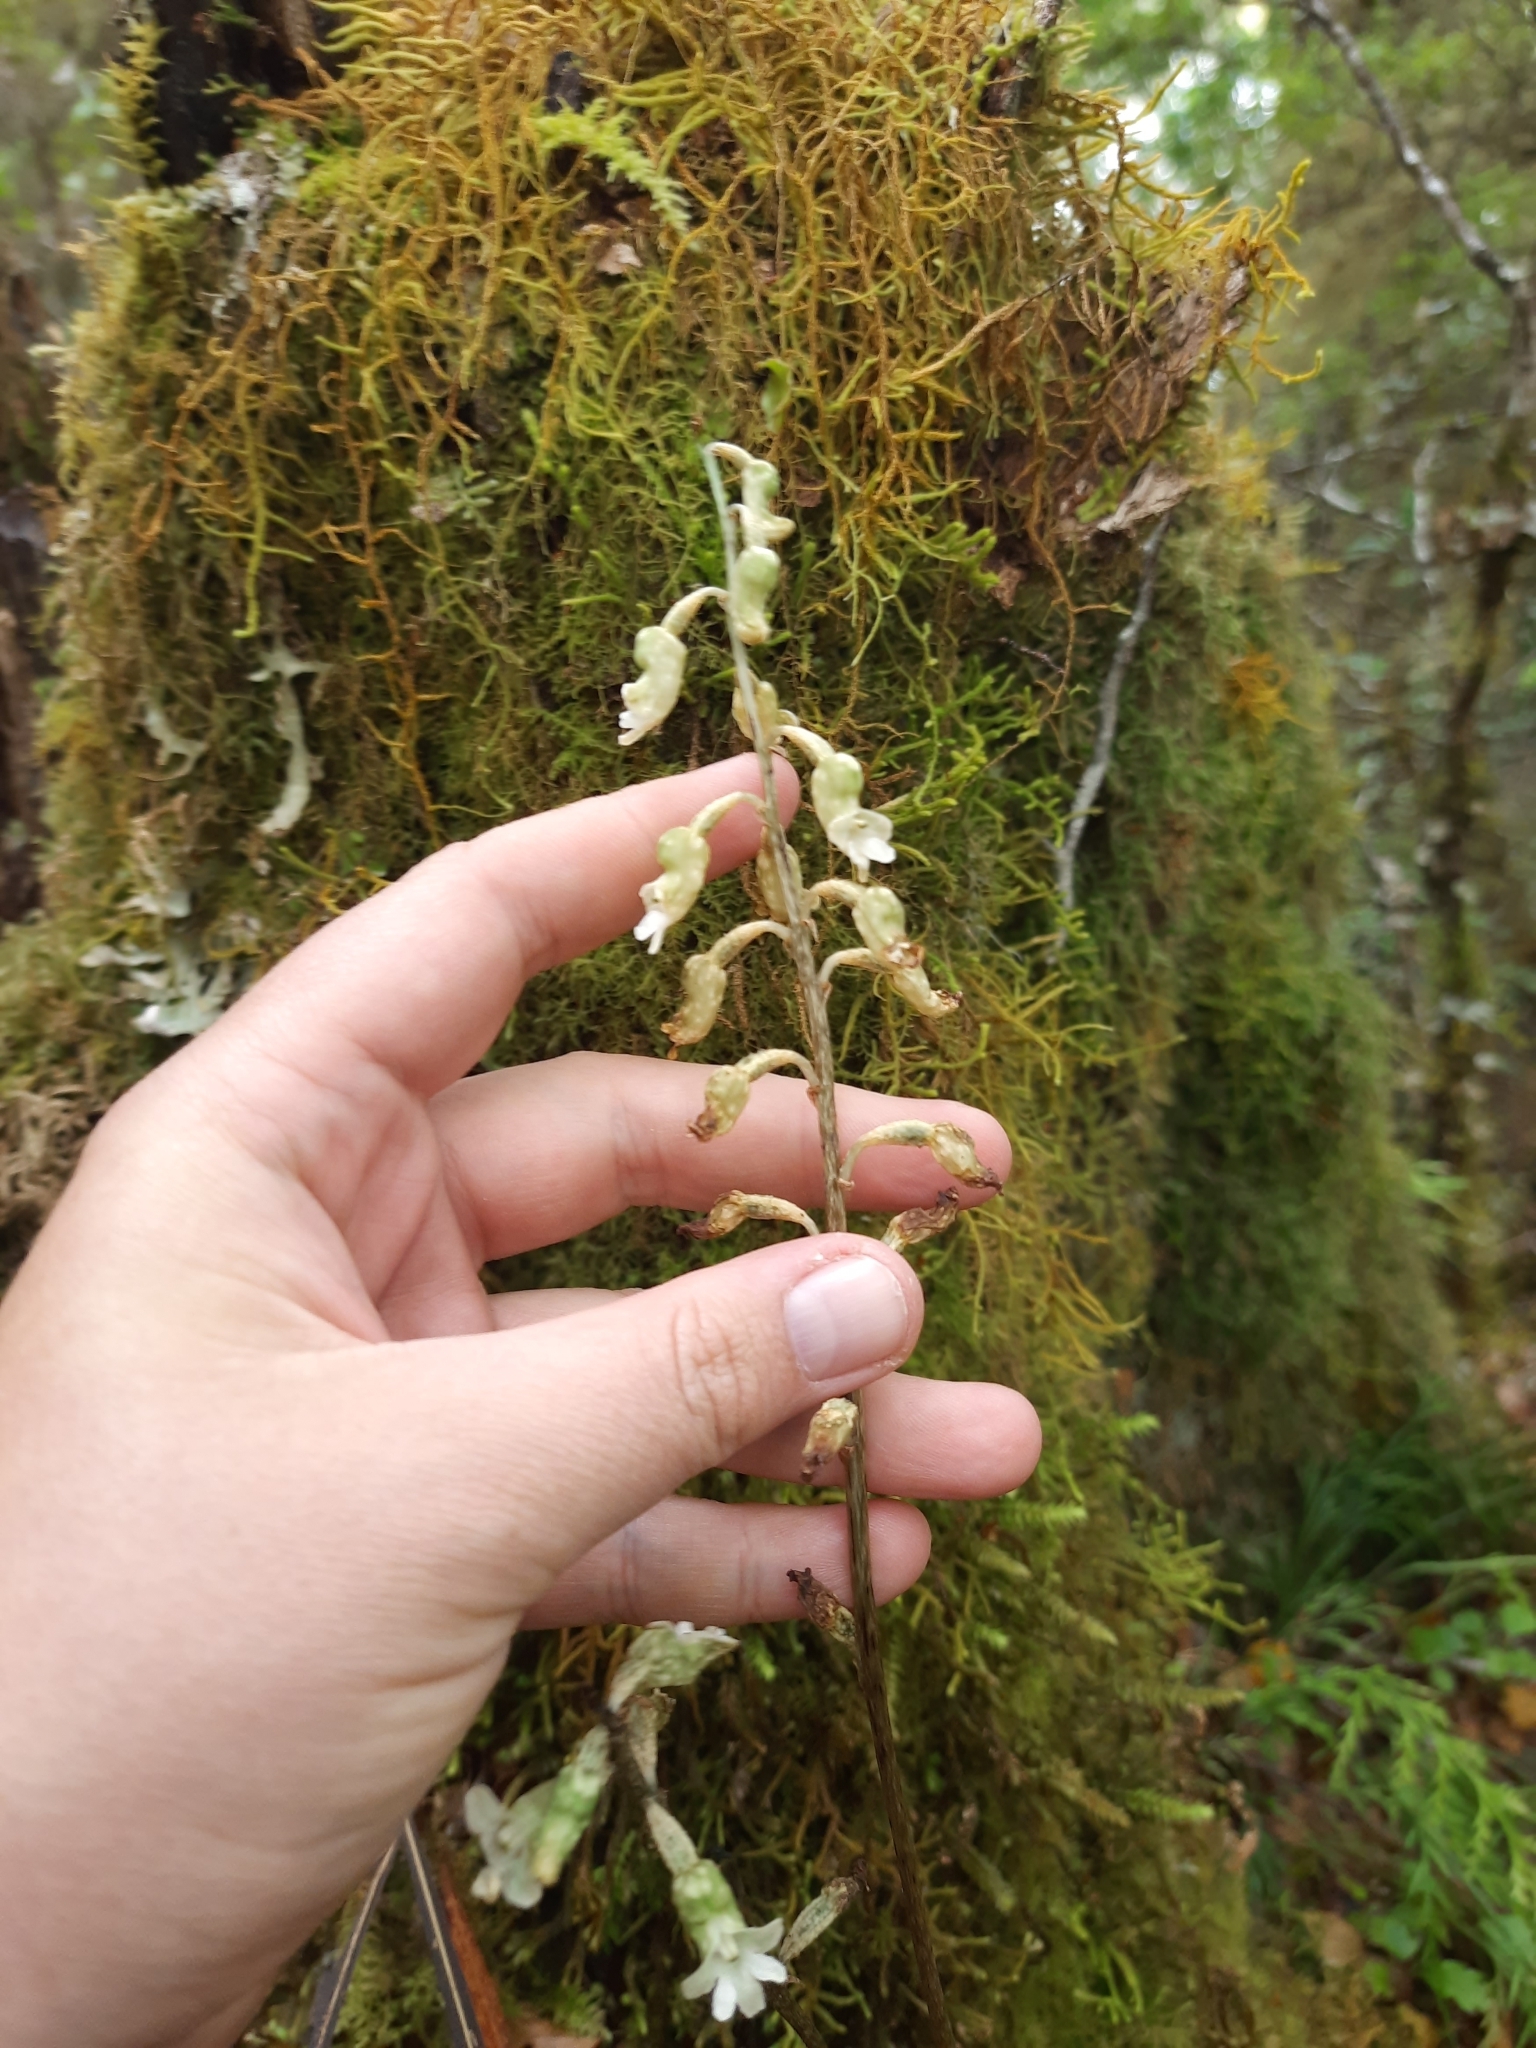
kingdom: Plantae
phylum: Tracheophyta
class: Liliopsida
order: Asparagales
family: Orchidaceae
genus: Gastrodia
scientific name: Gastrodia cunninghamii
